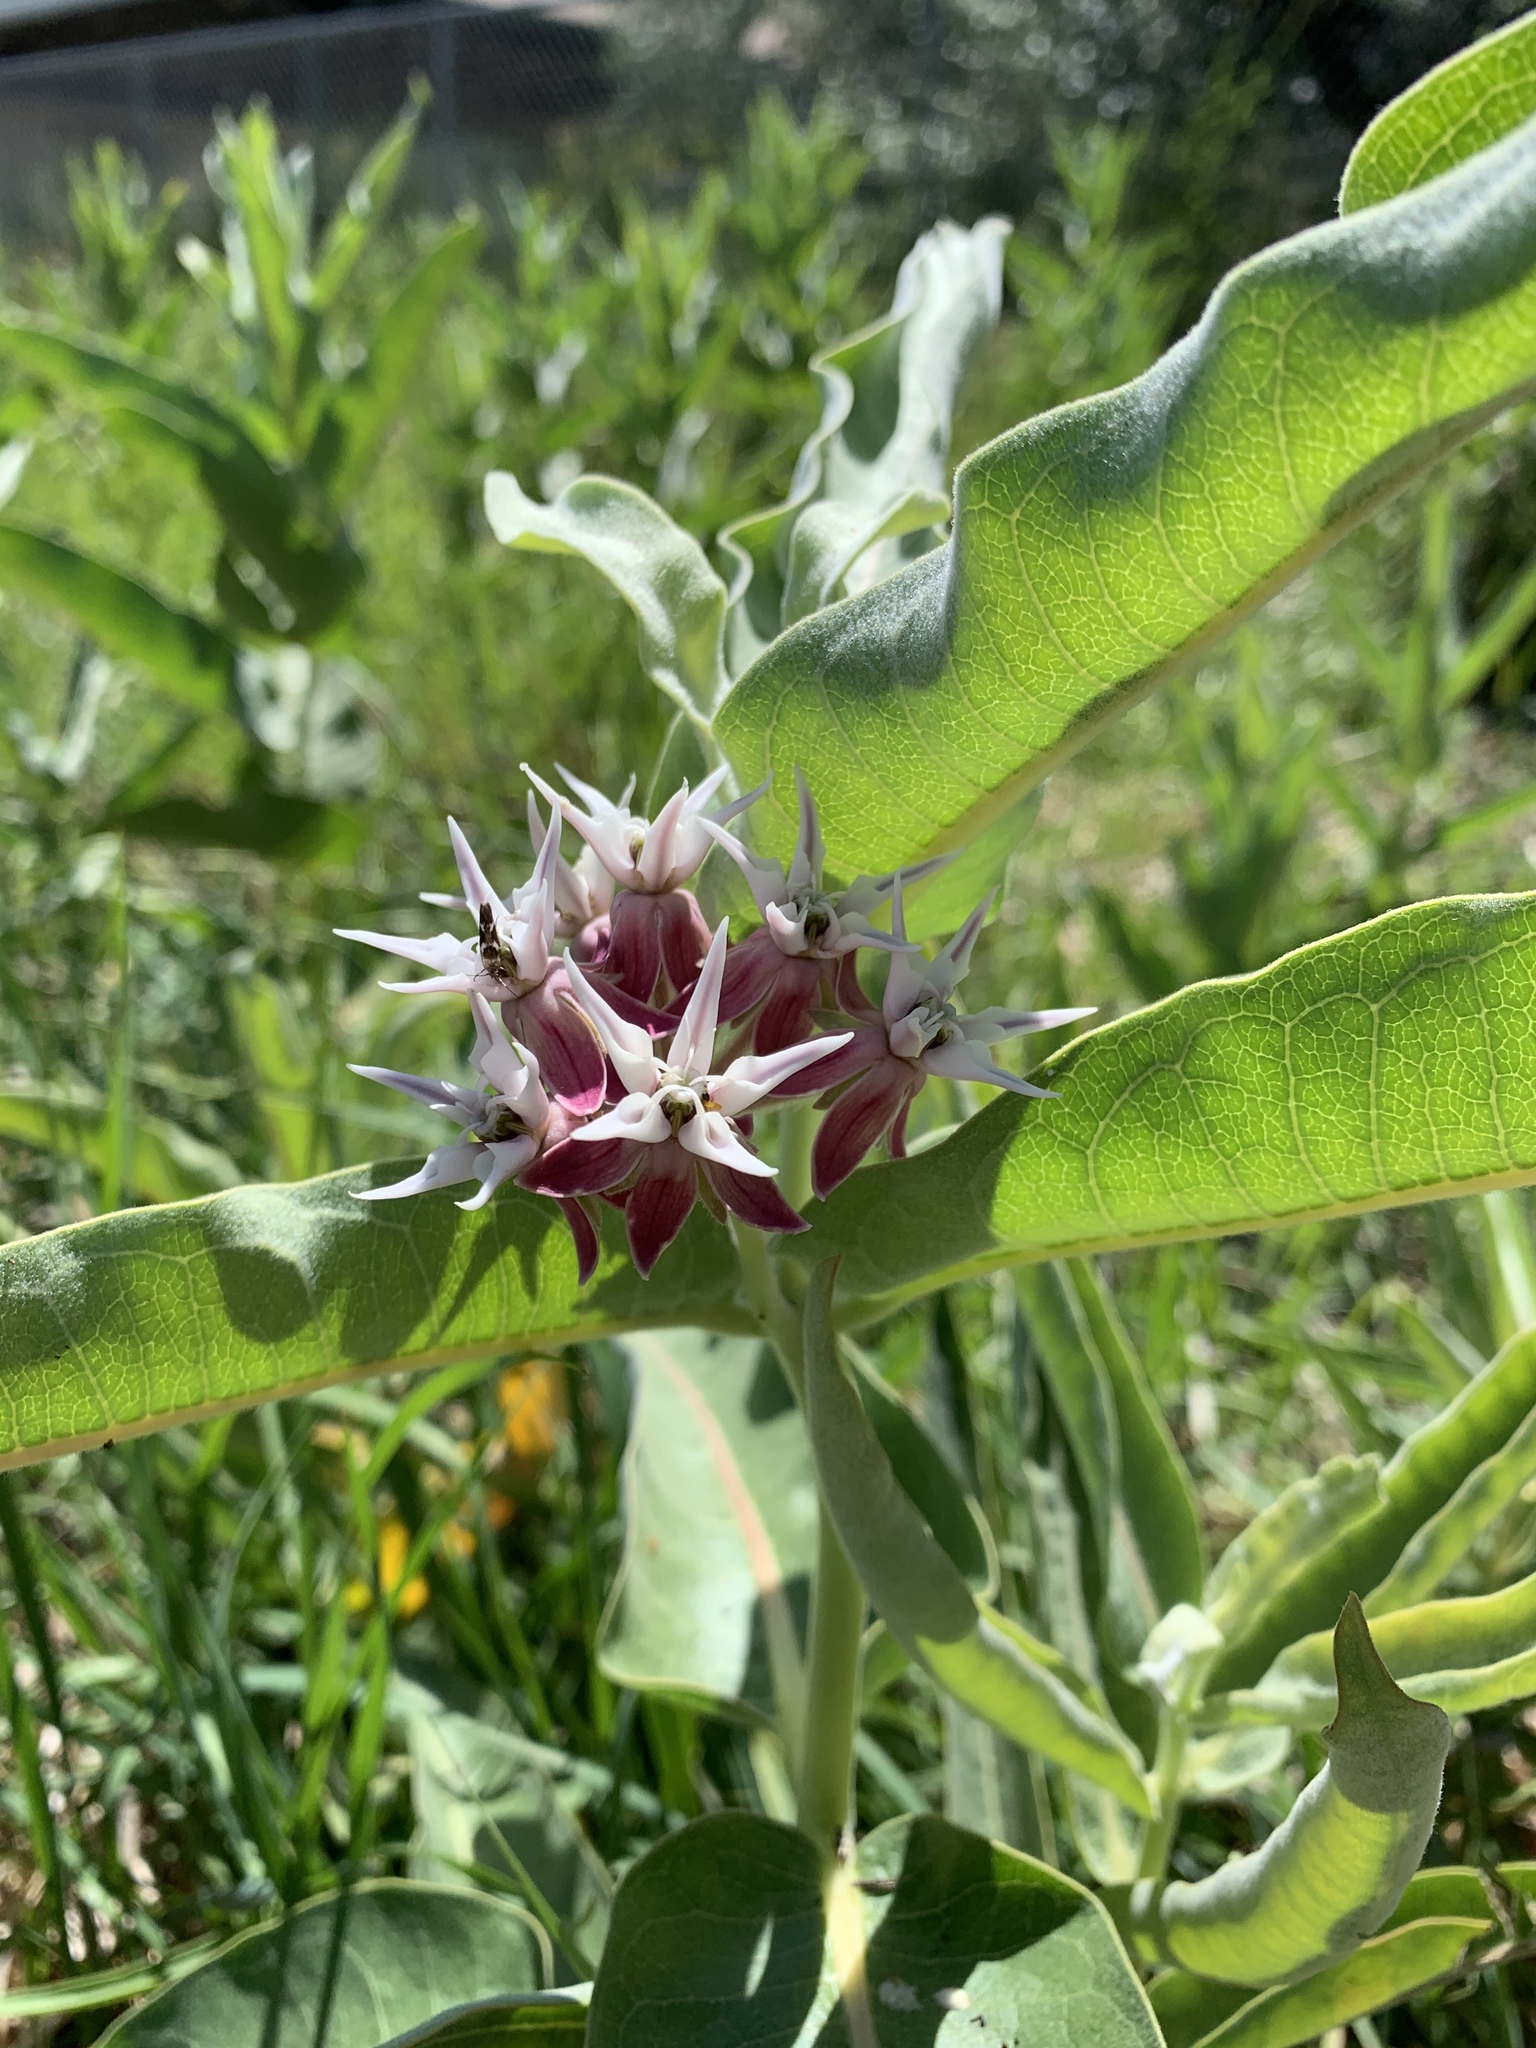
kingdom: Plantae
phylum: Tracheophyta
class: Magnoliopsida
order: Gentianales
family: Apocynaceae
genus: Asclepias
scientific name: Asclepias speciosa
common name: Showy milkweed
